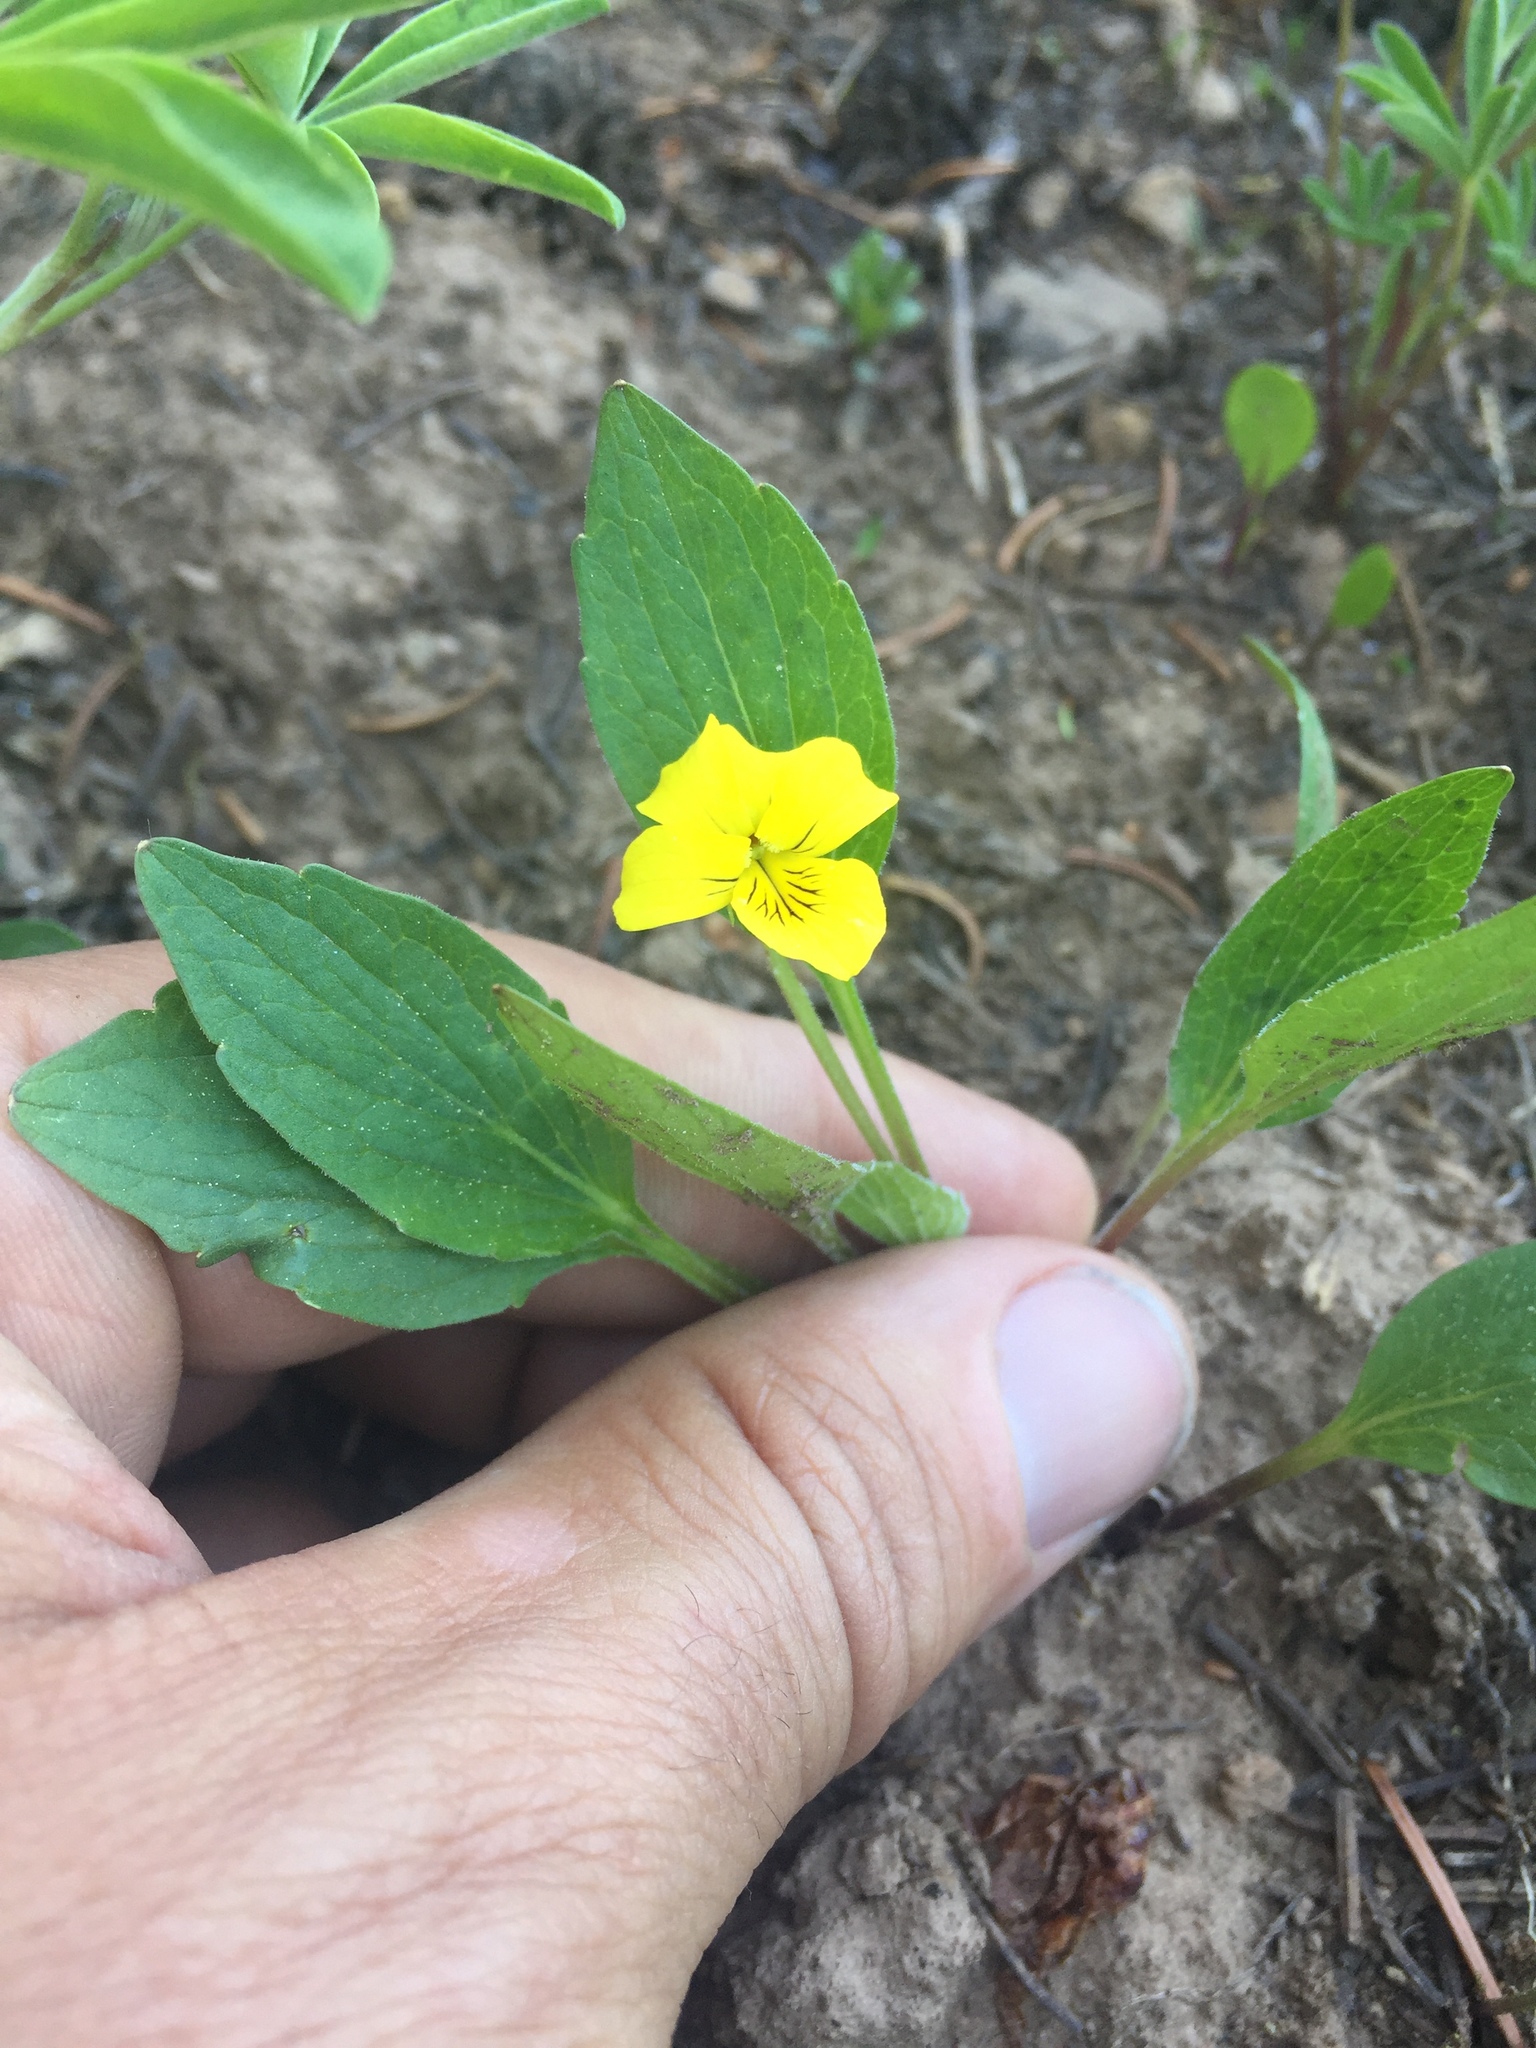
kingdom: Plantae
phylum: Tracheophyta
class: Magnoliopsida
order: Malpighiales
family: Violaceae
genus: Viola
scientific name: Viola nuttallii
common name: Yellow prairie violet
